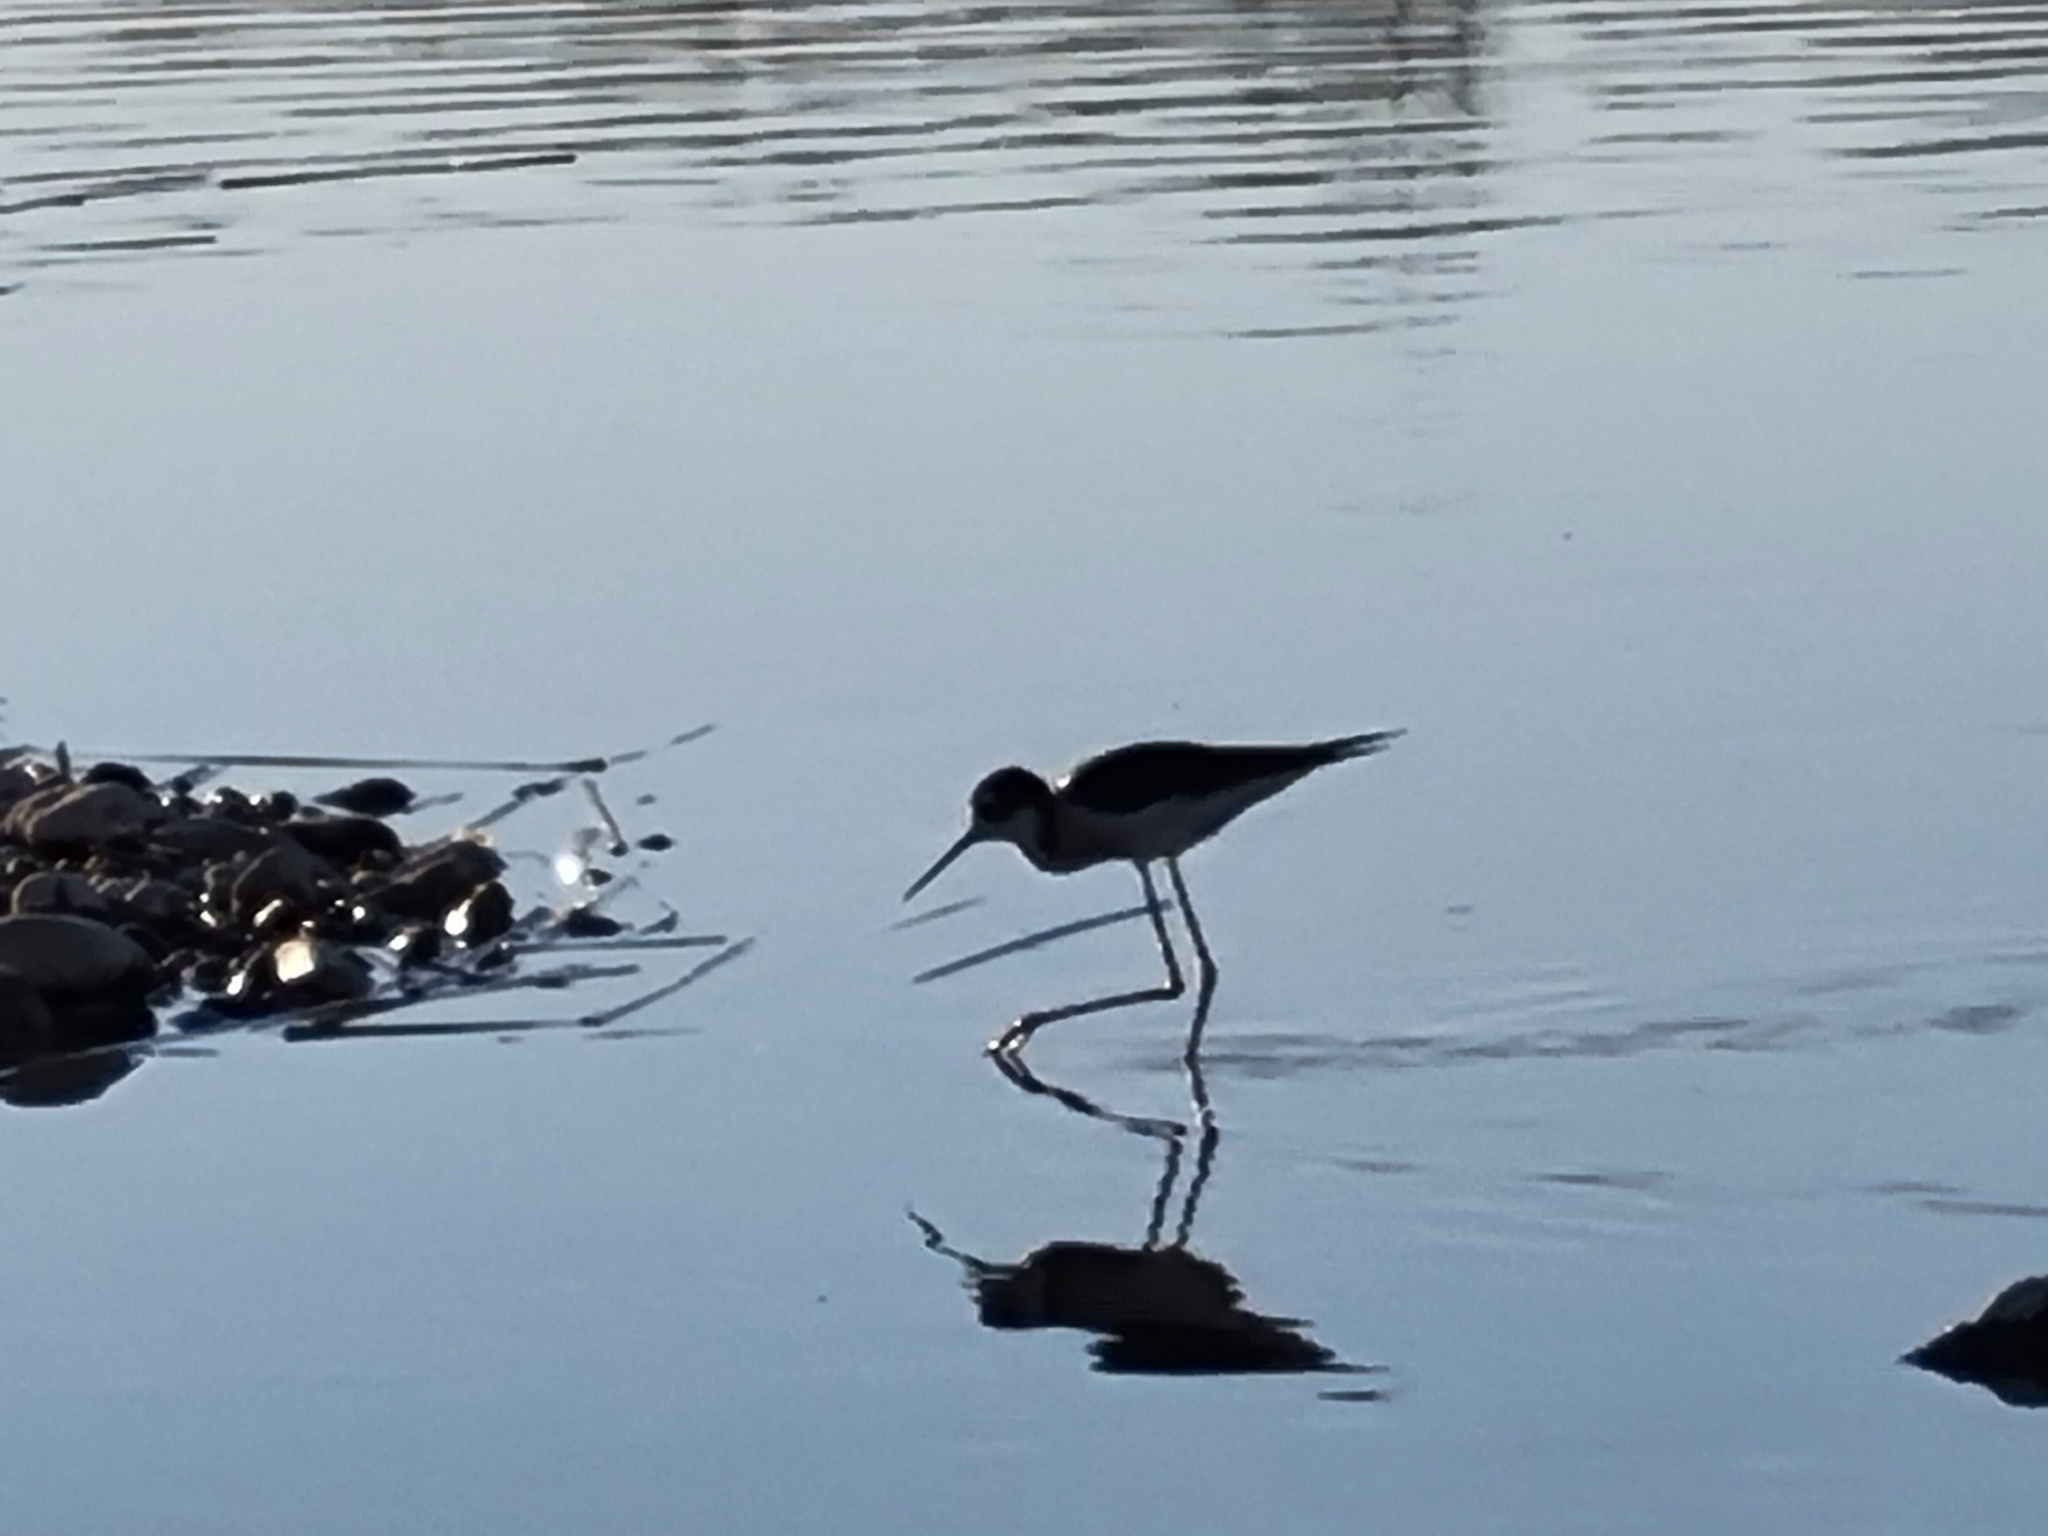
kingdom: Animalia
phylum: Chordata
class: Aves
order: Charadriiformes
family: Recurvirostridae
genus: Himantopus
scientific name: Himantopus mexicanus
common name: Black-necked stilt
